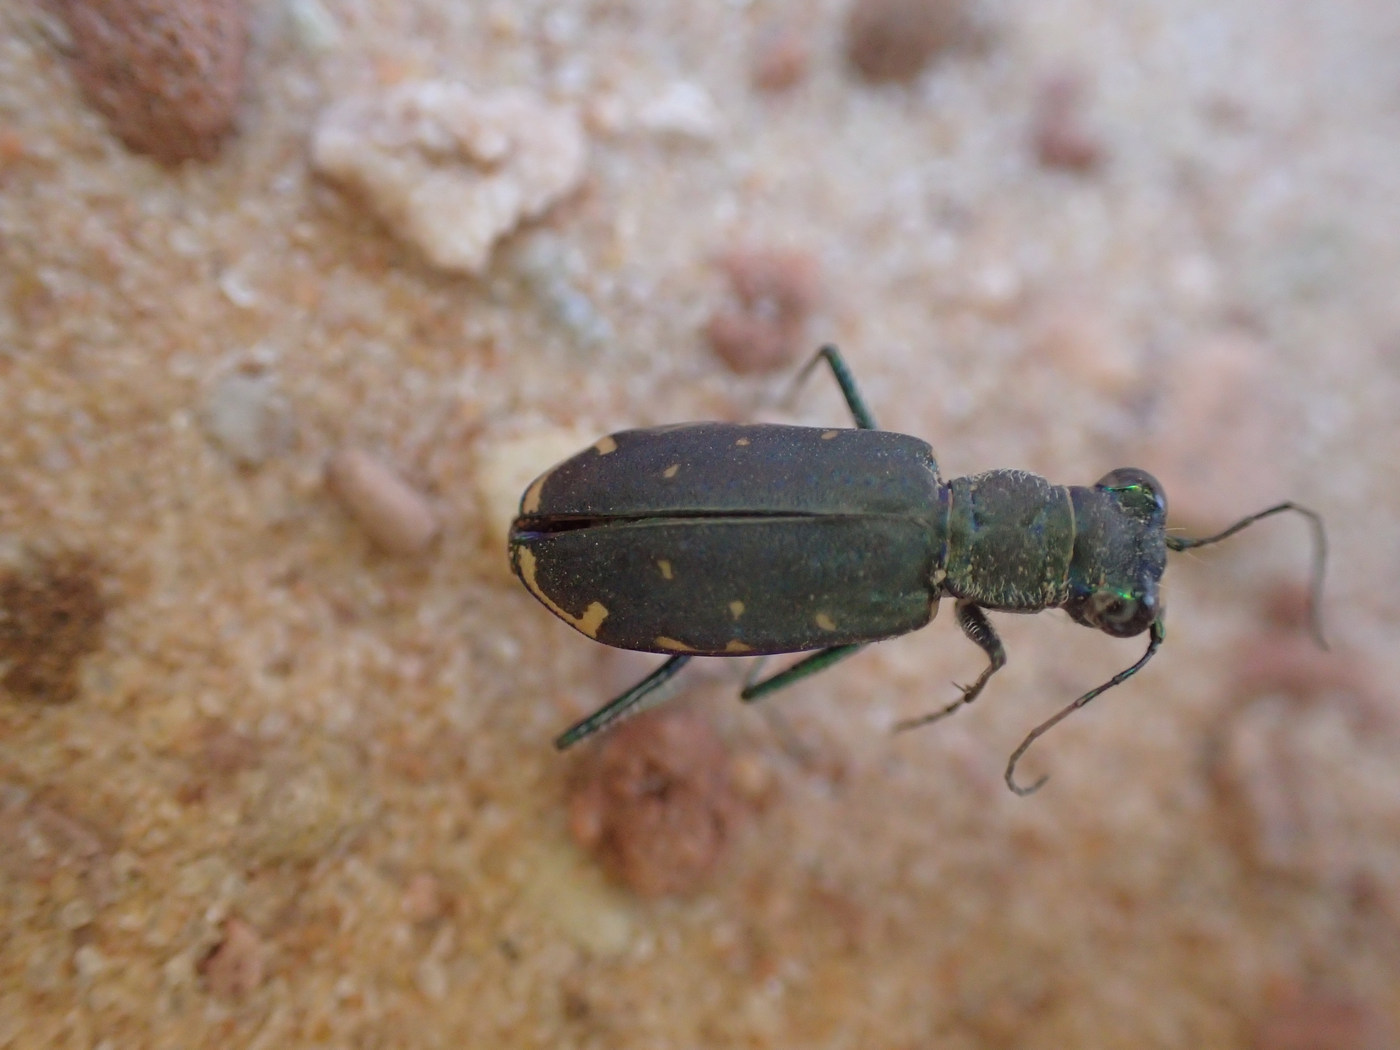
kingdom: Animalia
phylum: Arthropoda
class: Insecta
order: Coleoptera
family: Carabidae
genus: Cicindela
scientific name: Cicindela punctulata
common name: Punctured tiger beetle
